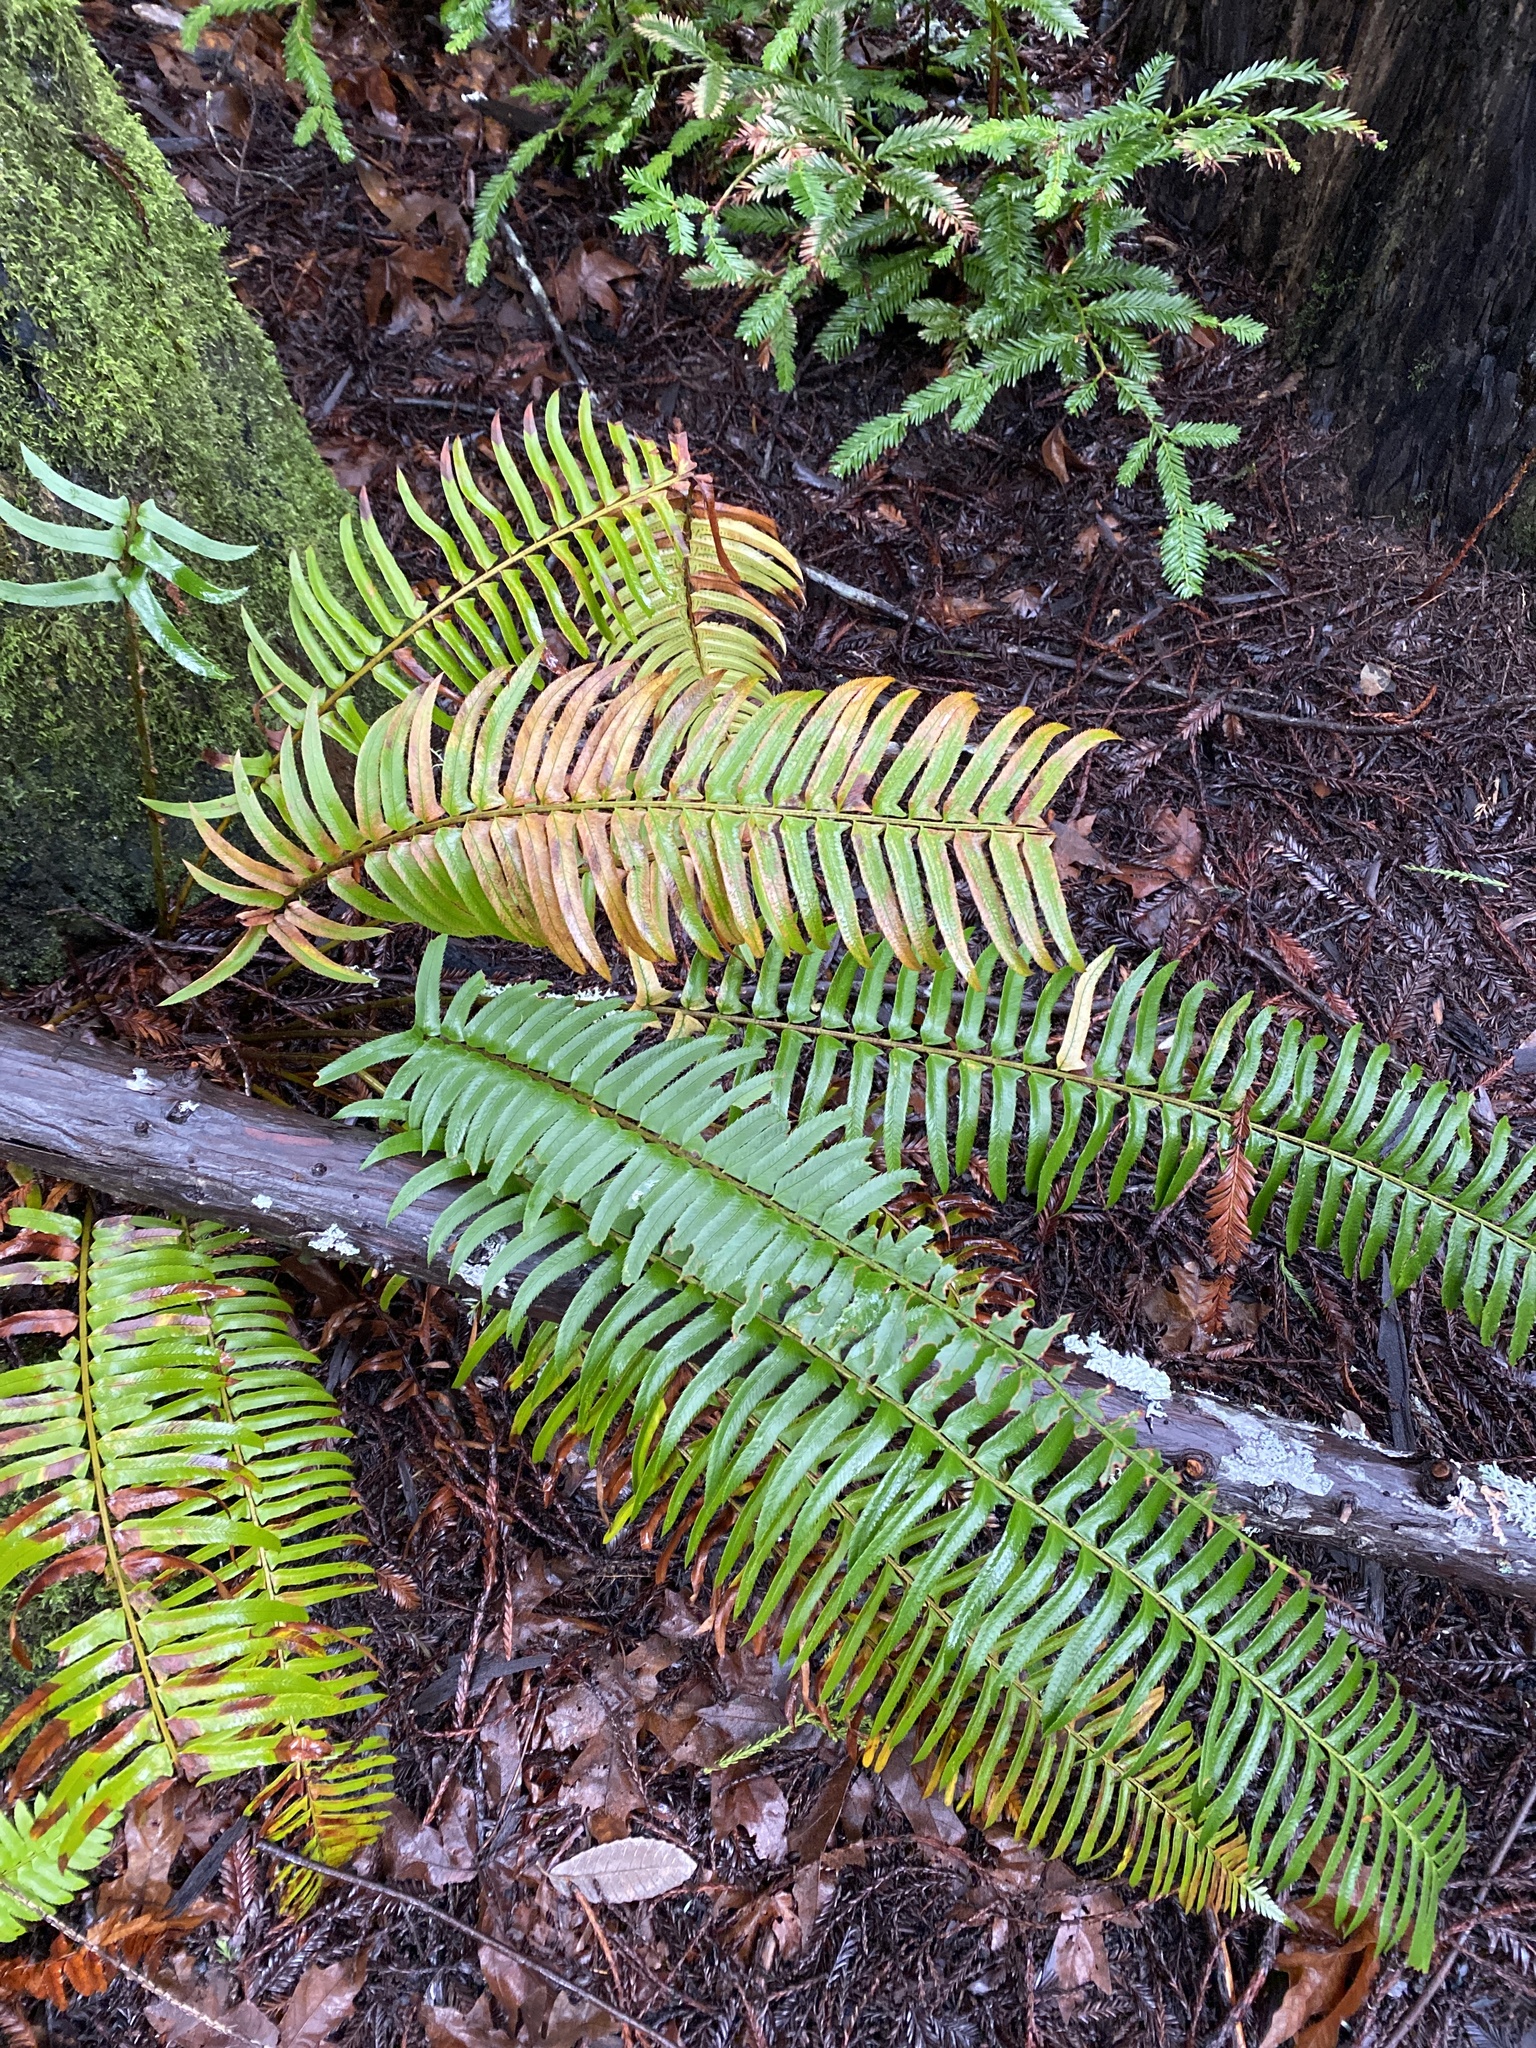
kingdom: Plantae
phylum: Tracheophyta
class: Polypodiopsida
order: Polypodiales
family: Dryopteridaceae
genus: Polystichum
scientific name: Polystichum munitum
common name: Western sword-fern
